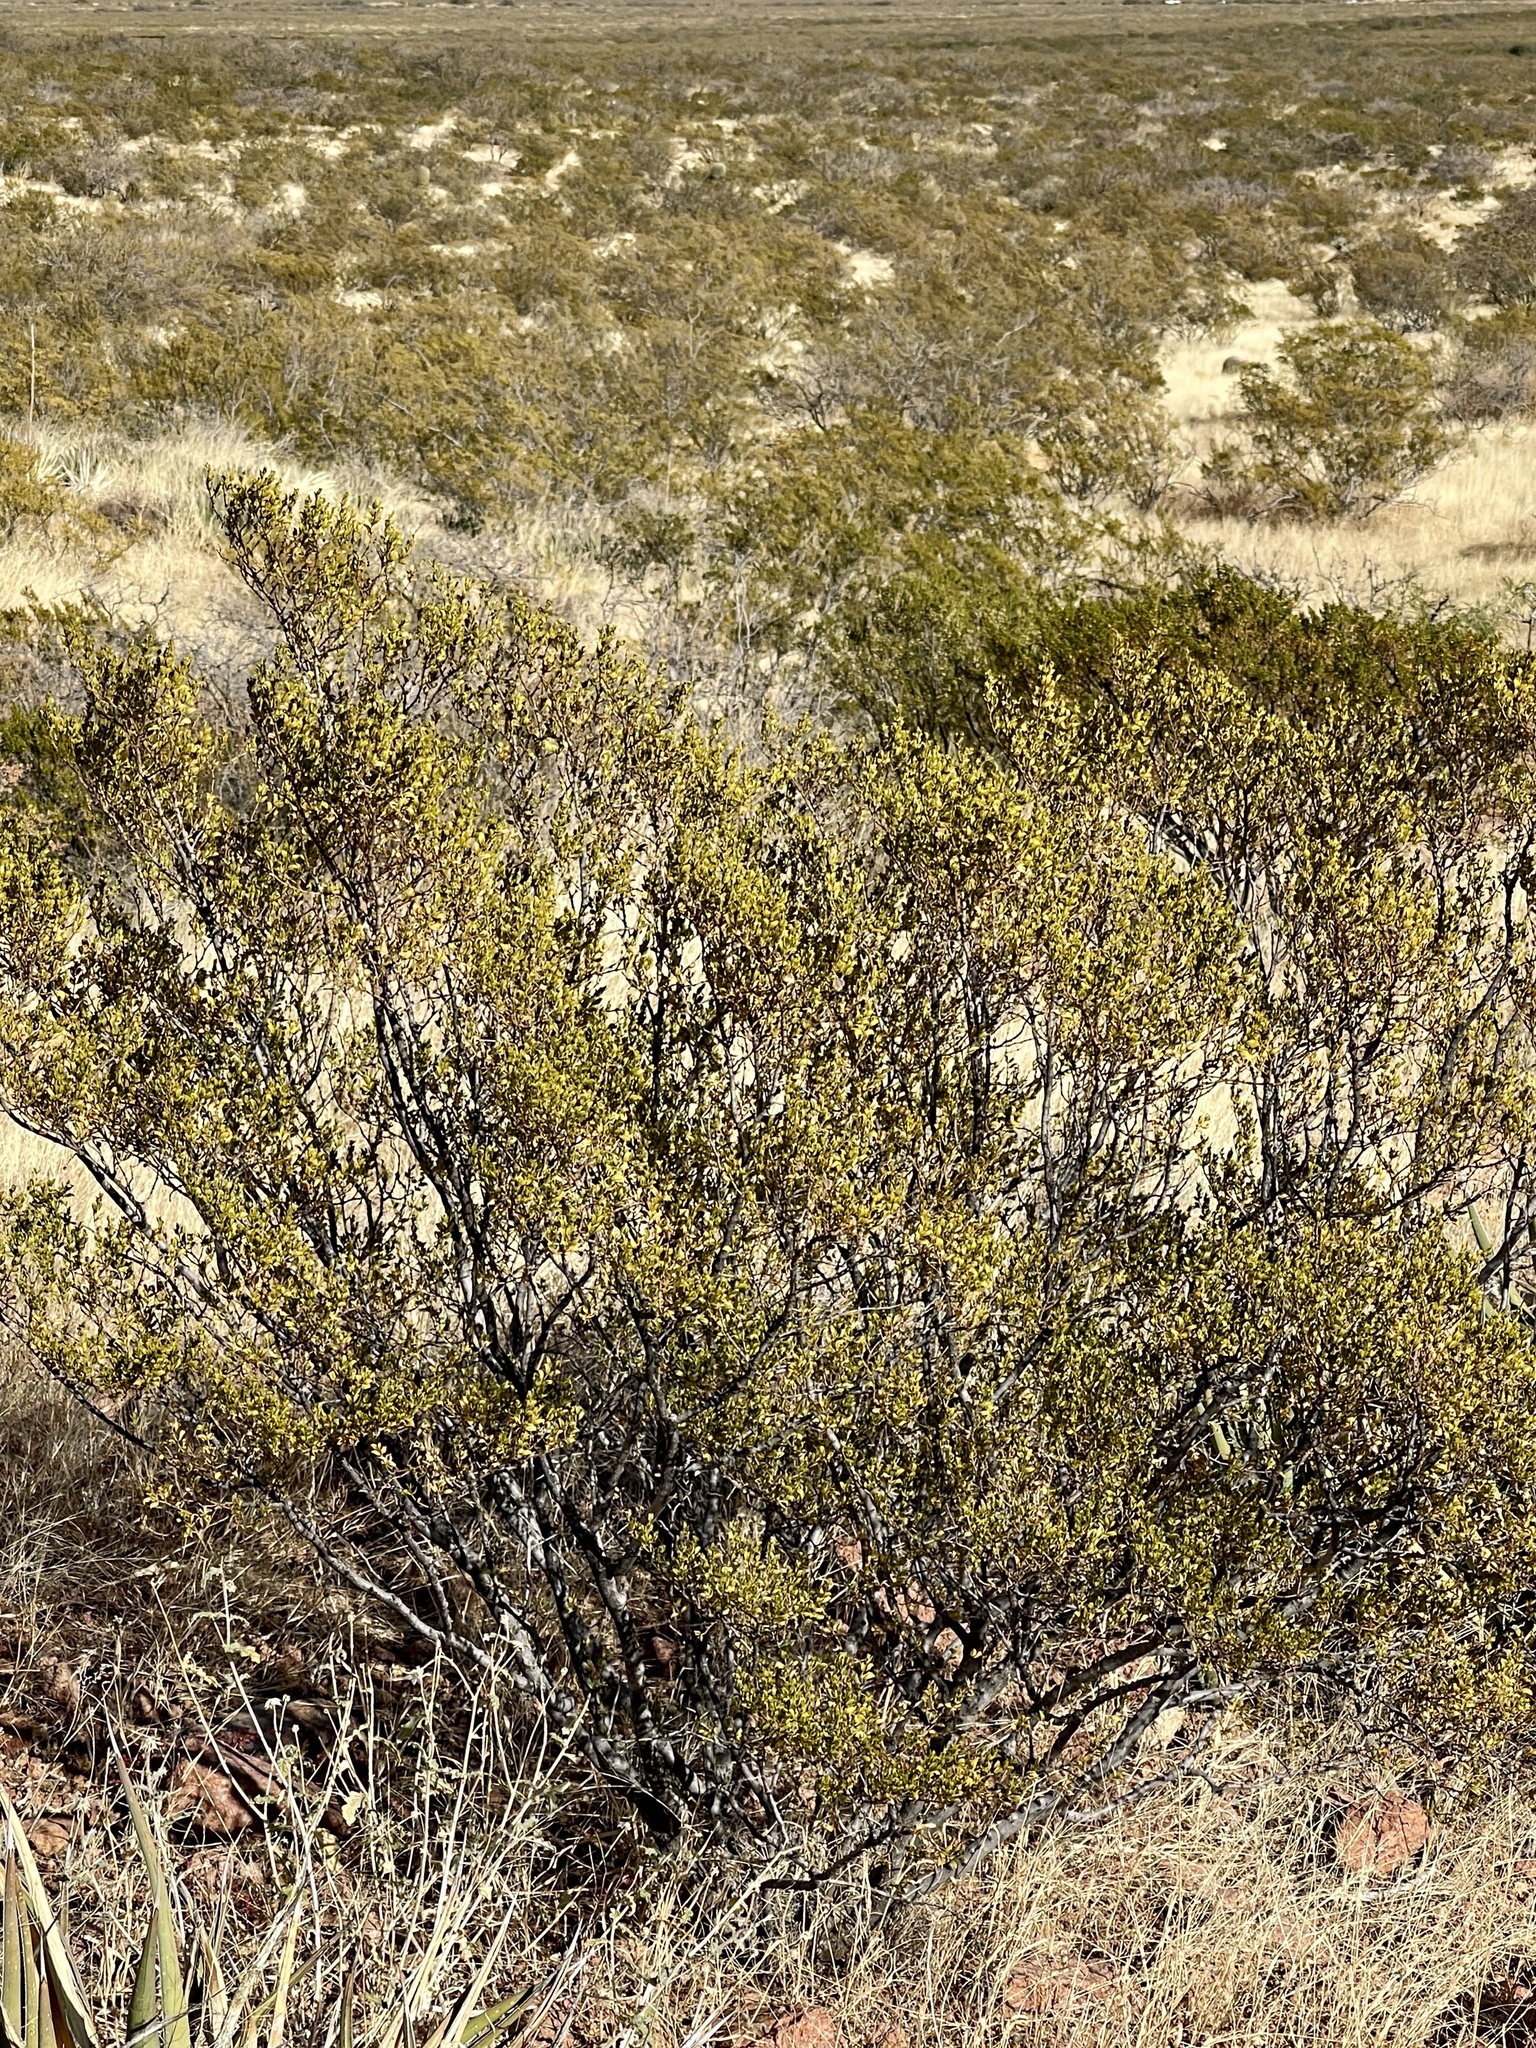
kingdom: Plantae
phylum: Tracheophyta
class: Magnoliopsida
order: Zygophyllales
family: Zygophyllaceae
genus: Larrea
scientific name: Larrea tridentata
